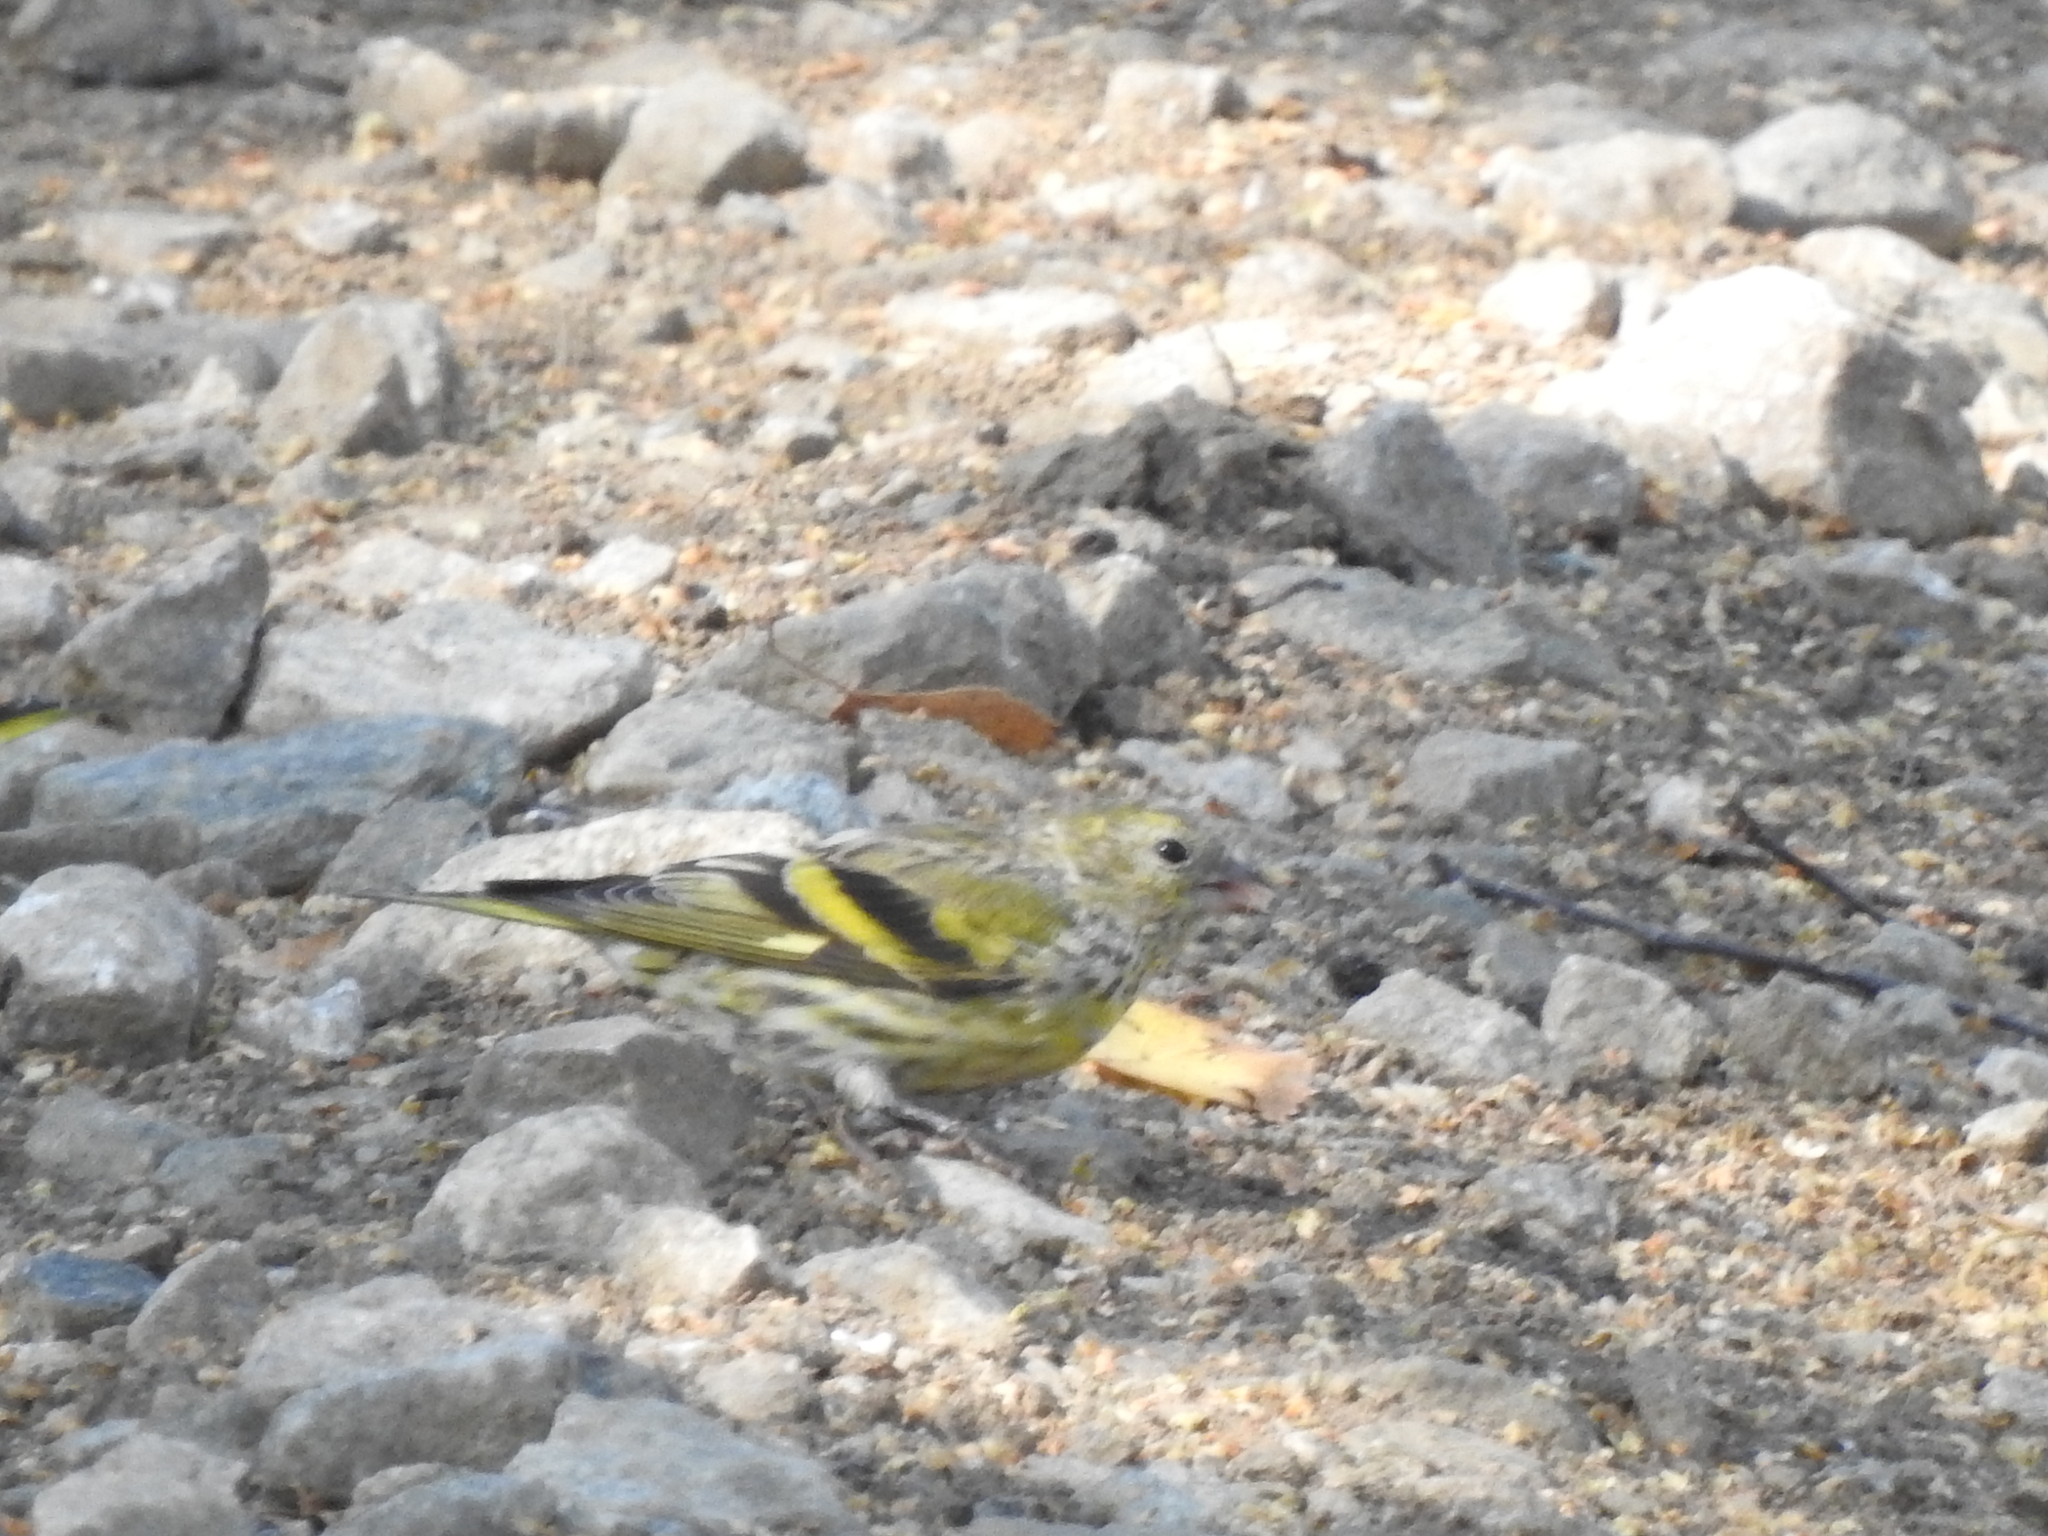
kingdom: Animalia
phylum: Chordata
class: Aves
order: Passeriformes
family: Fringillidae
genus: Spinus
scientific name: Spinus spinus
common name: Eurasian siskin
